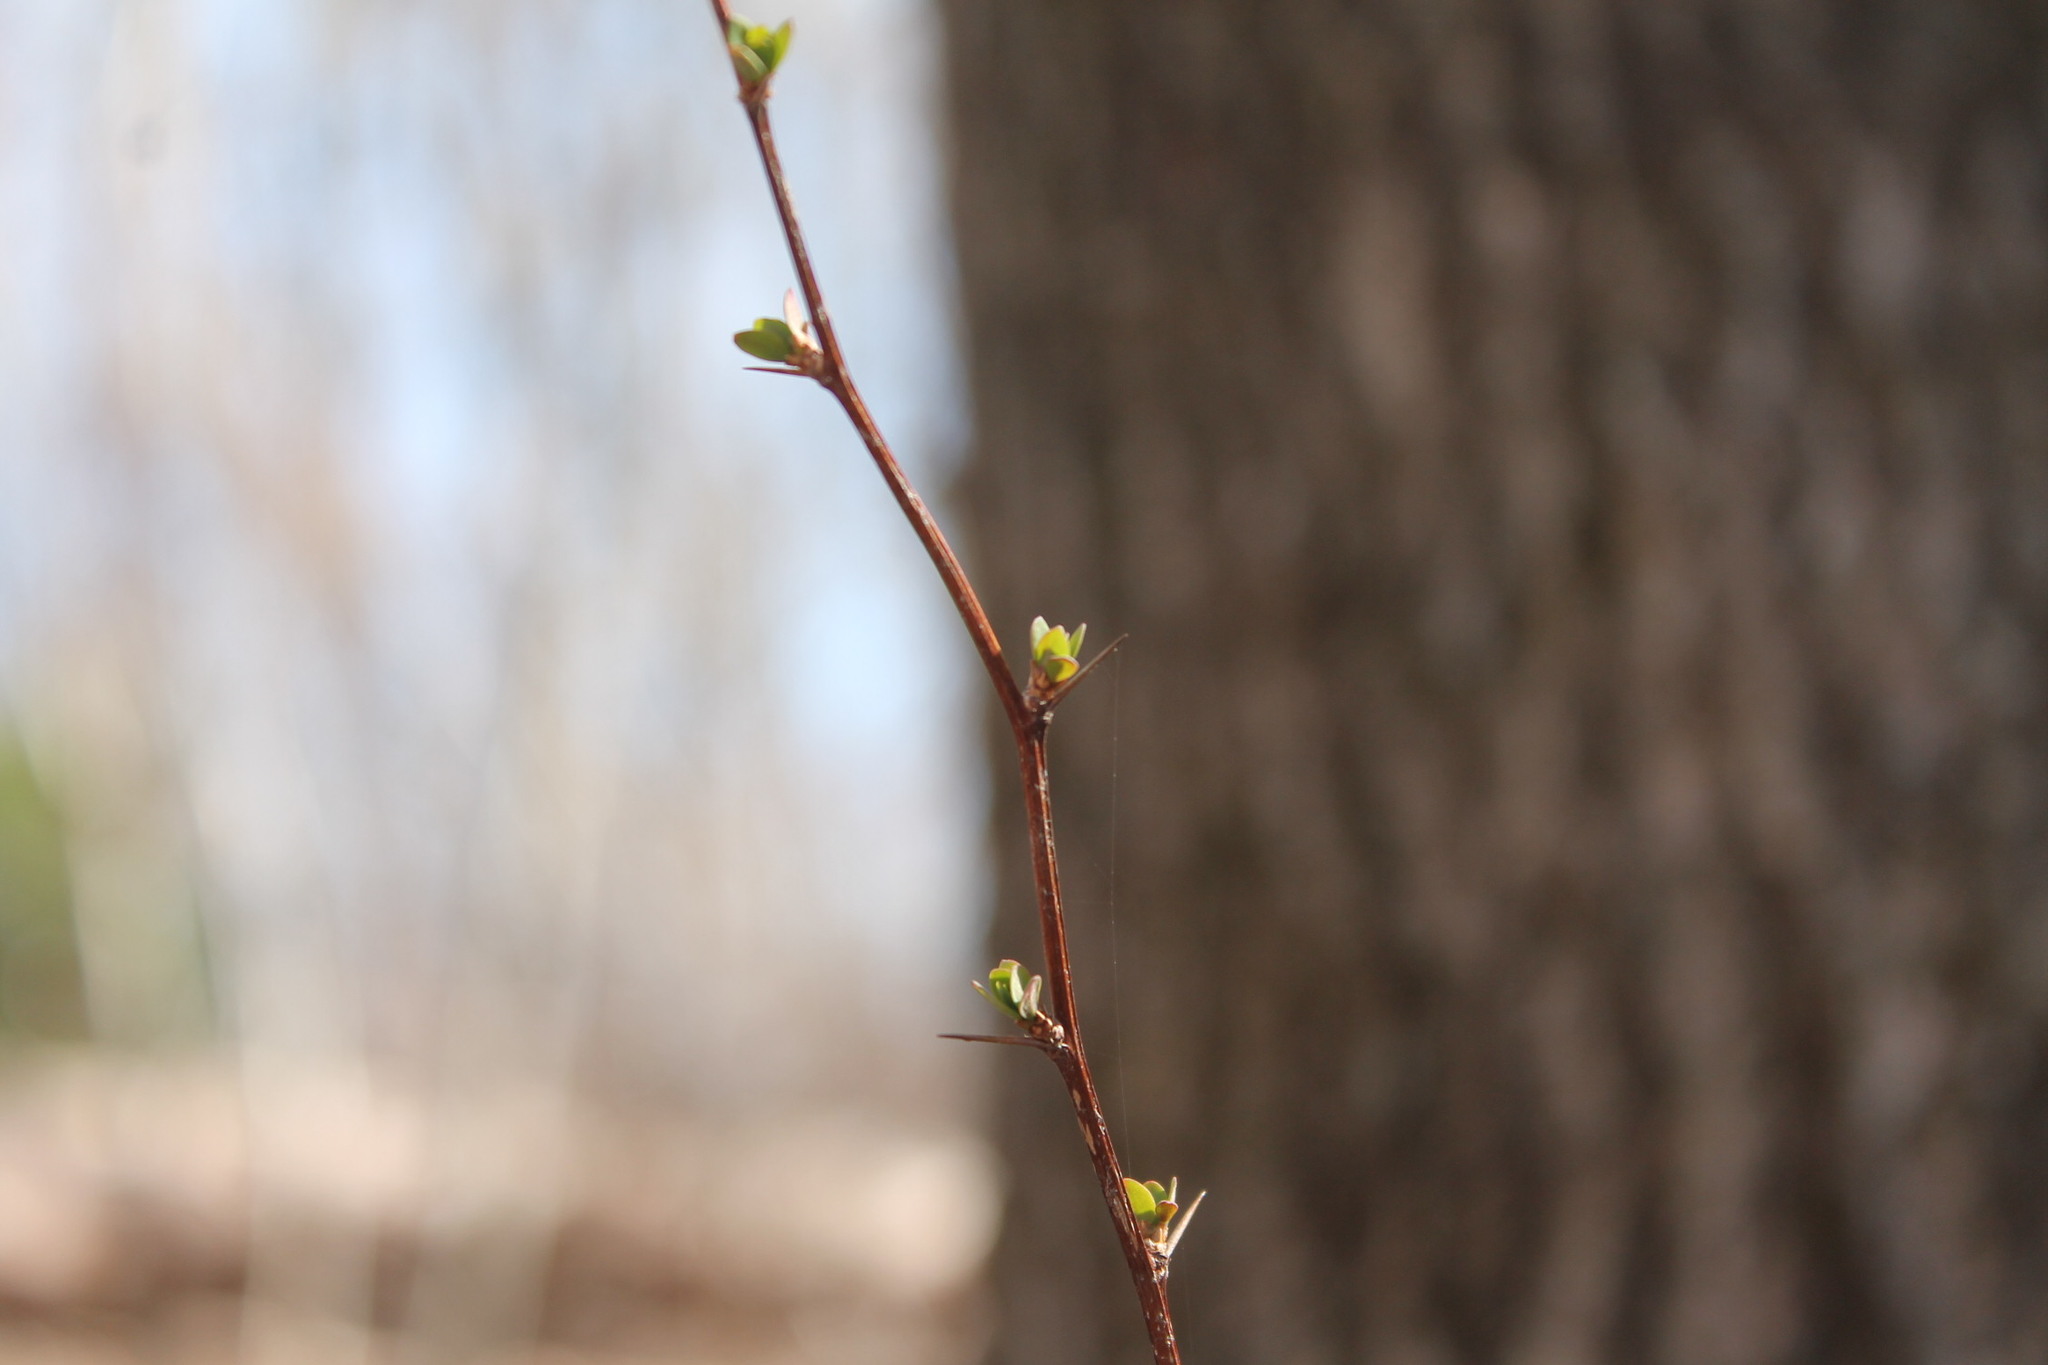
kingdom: Plantae
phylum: Tracheophyta
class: Magnoliopsida
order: Ranunculales
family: Berberidaceae
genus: Berberis
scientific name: Berberis thunbergii
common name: Japanese barberry
